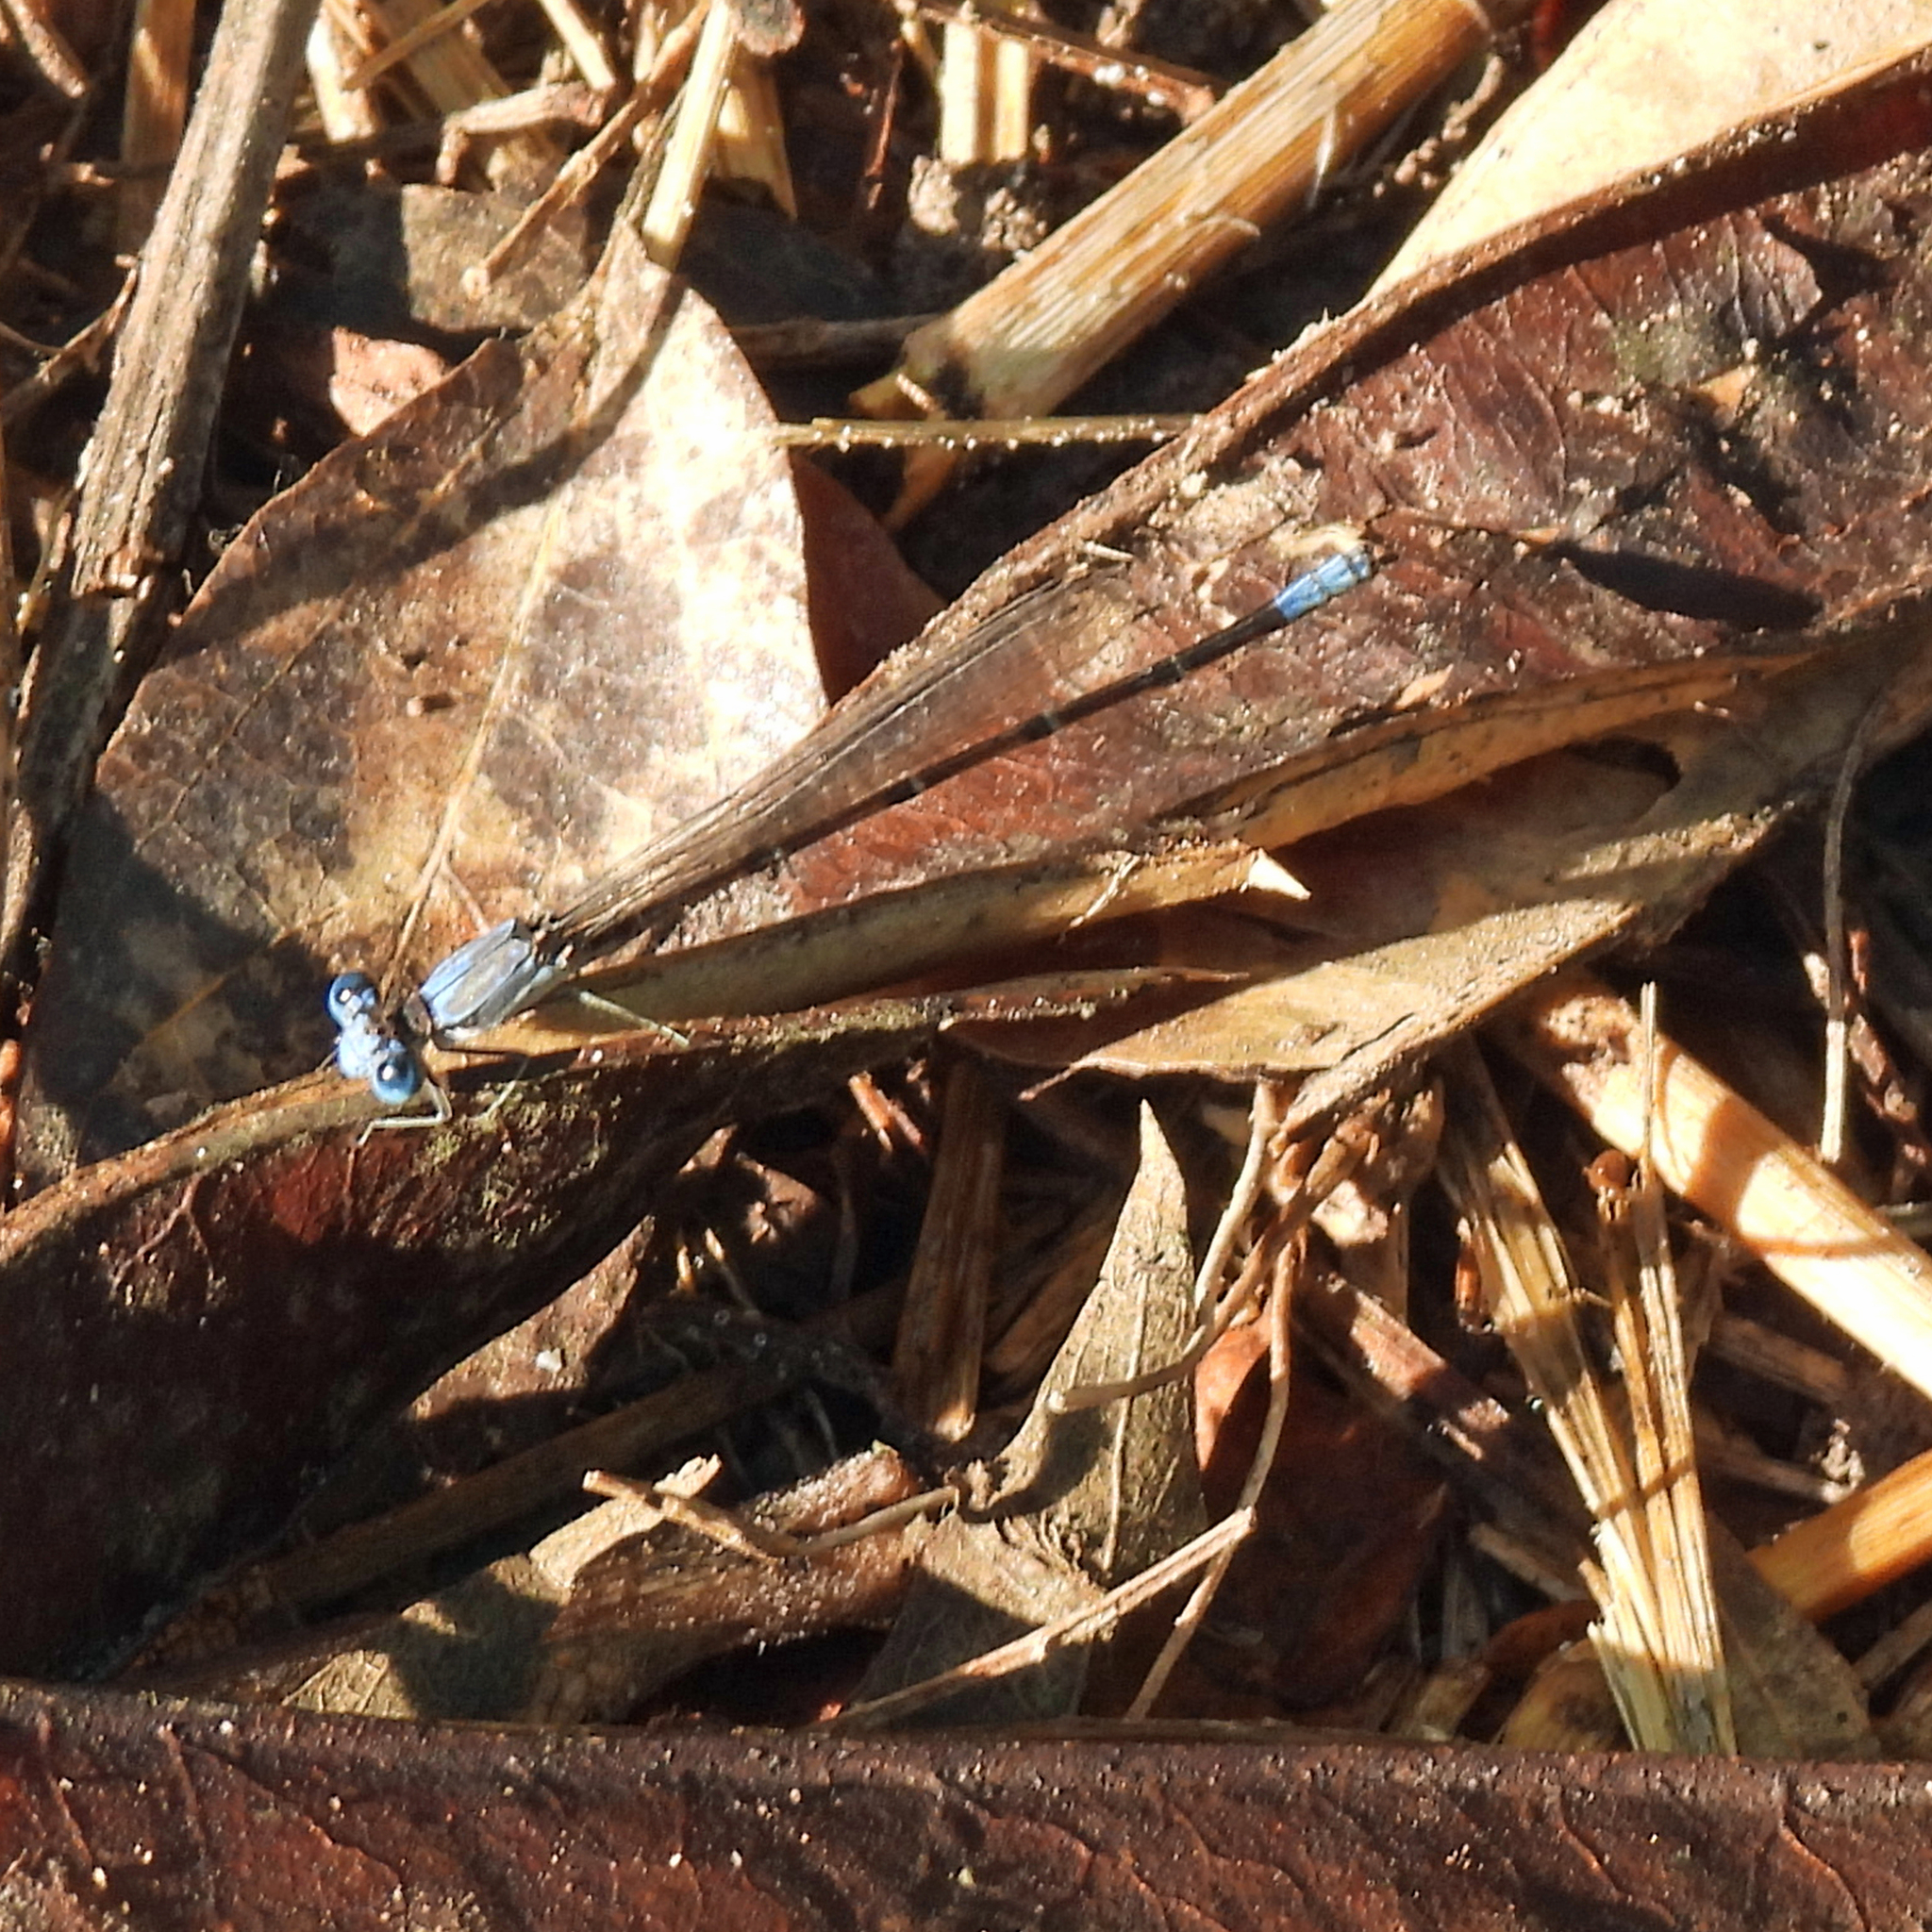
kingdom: Animalia
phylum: Arthropoda
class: Insecta
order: Odonata
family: Coenagrionidae
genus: Argia
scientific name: Argia apicalis
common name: Blue-fronted dancer
